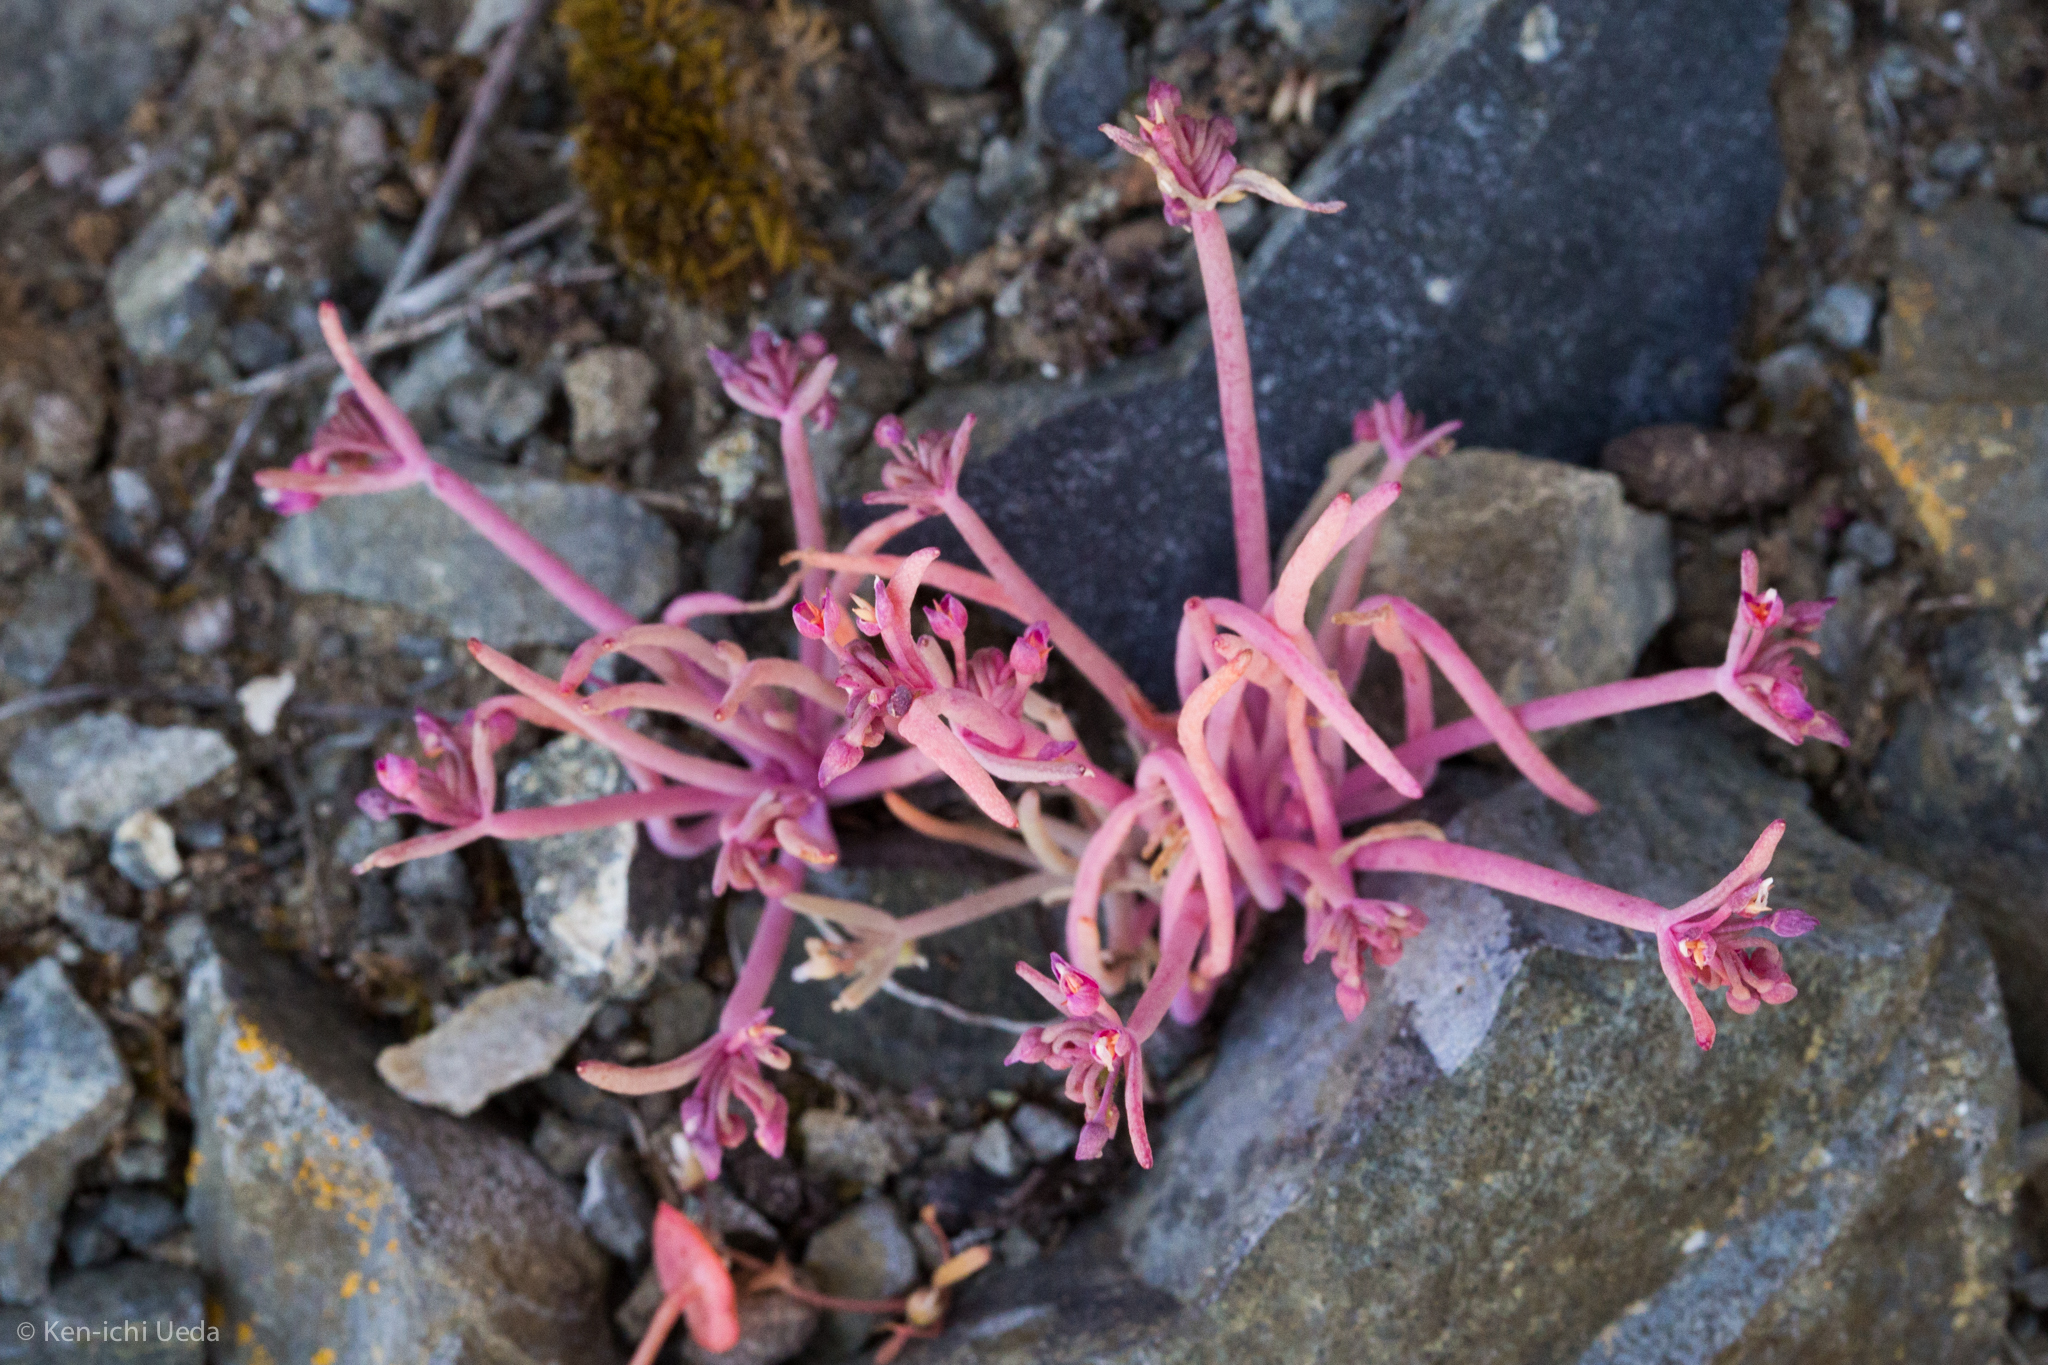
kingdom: Plantae
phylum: Tracheophyta
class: Magnoliopsida
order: Caryophyllales
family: Montiaceae
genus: Claytonia
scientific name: Claytonia exigua
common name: Pale spring beauty
